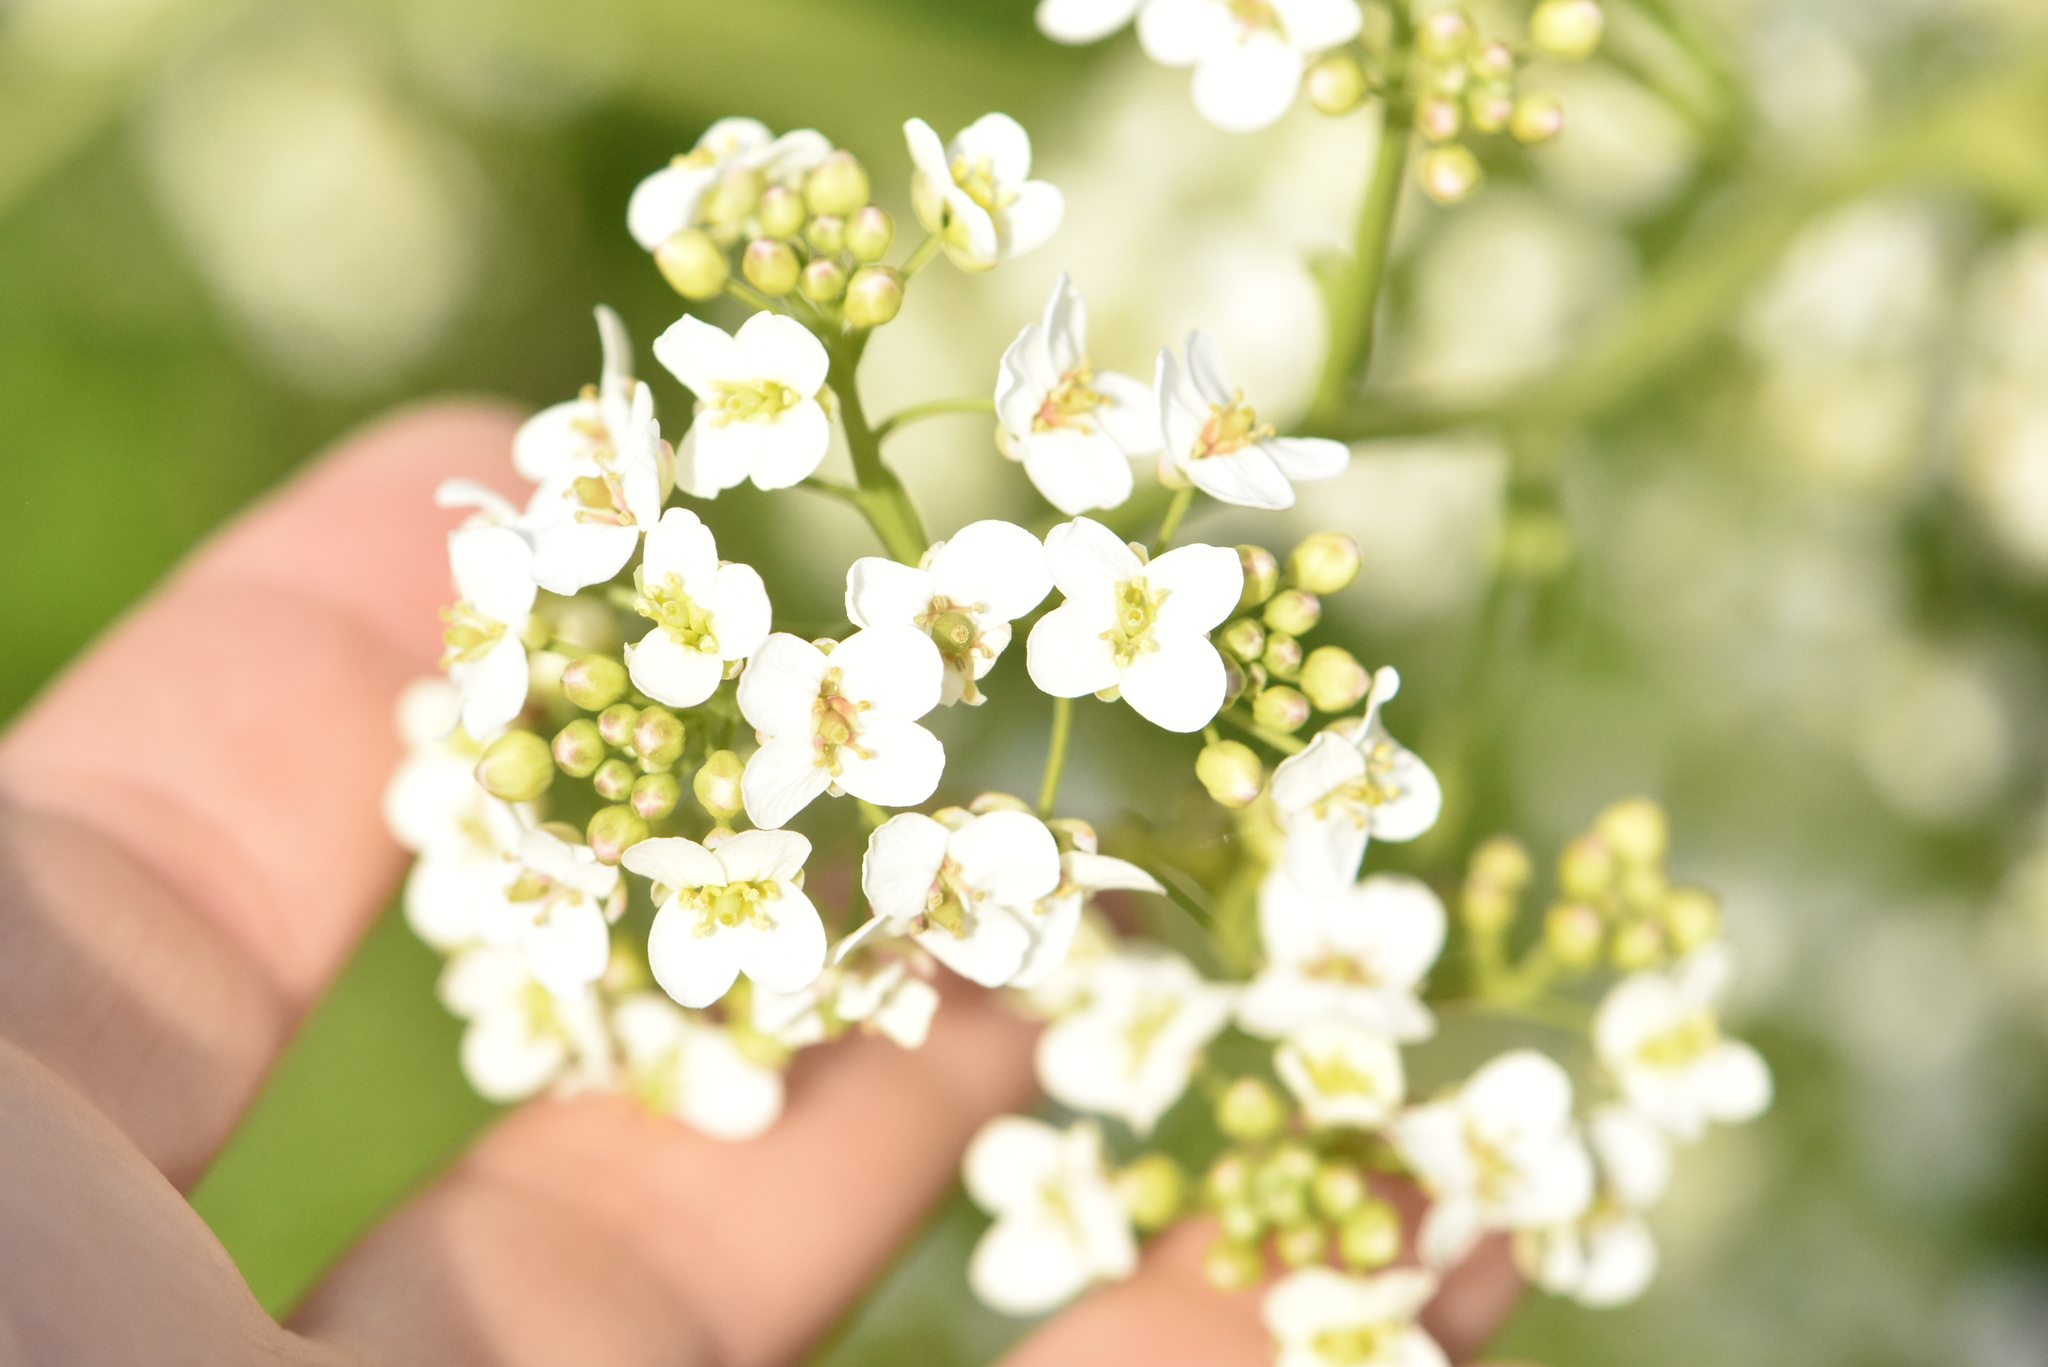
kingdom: Plantae
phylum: Tracheophyta
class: Magnoliopsida
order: Brassicales
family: Brassicaceae
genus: Crambe
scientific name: Crambe tataria
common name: Tartarian breadplant
